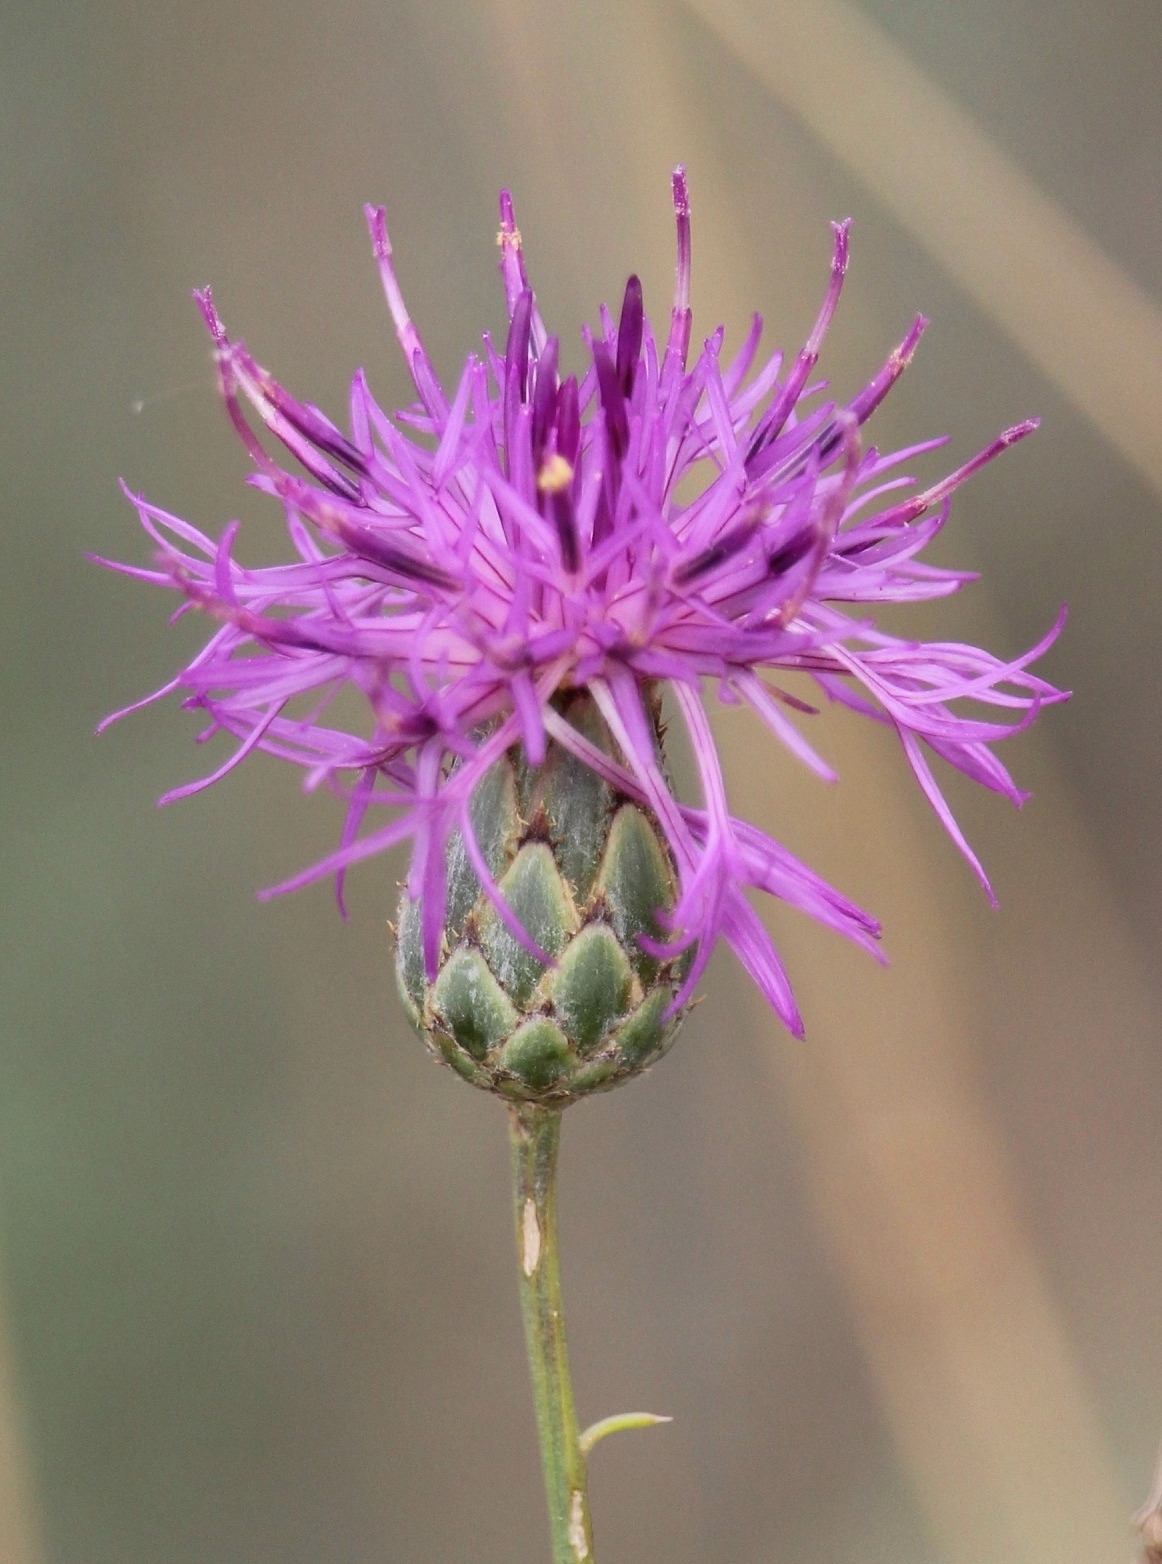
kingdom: Plantae
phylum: Tracheophyta
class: Magnoliopsida
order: Asterales
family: Asteraceae
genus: Centaurea
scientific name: Centaurea scabiosa
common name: Greater knapweed
